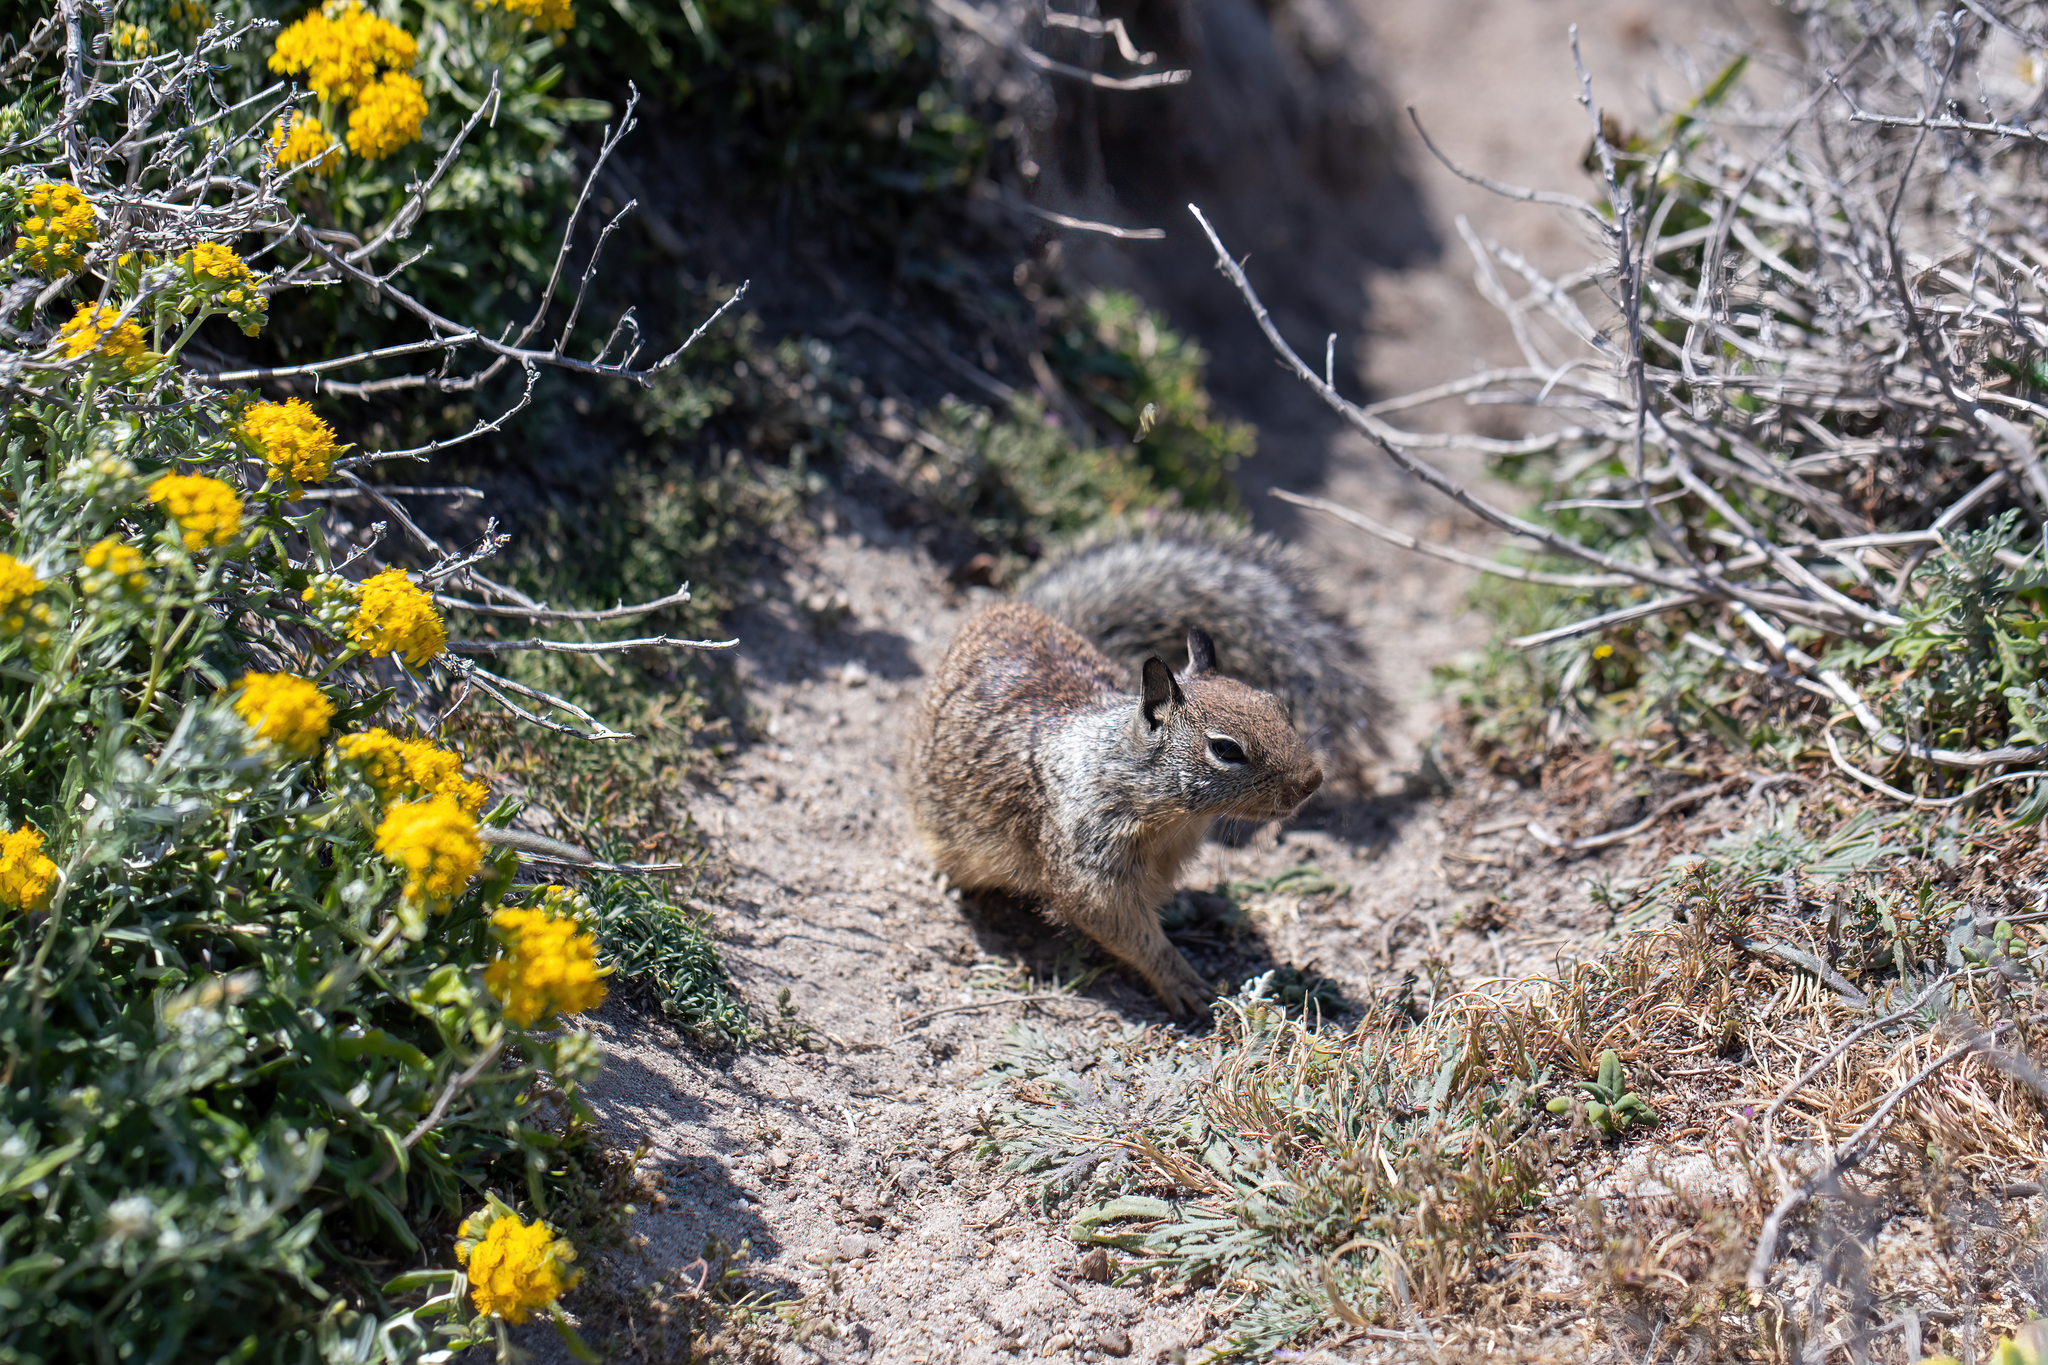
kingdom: Animalia
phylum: Chordata
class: Mammalia
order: Rodentia
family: Sciuridae
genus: Otospermophilus
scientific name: Otospermophilus beecheyi
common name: California ground squirrel
